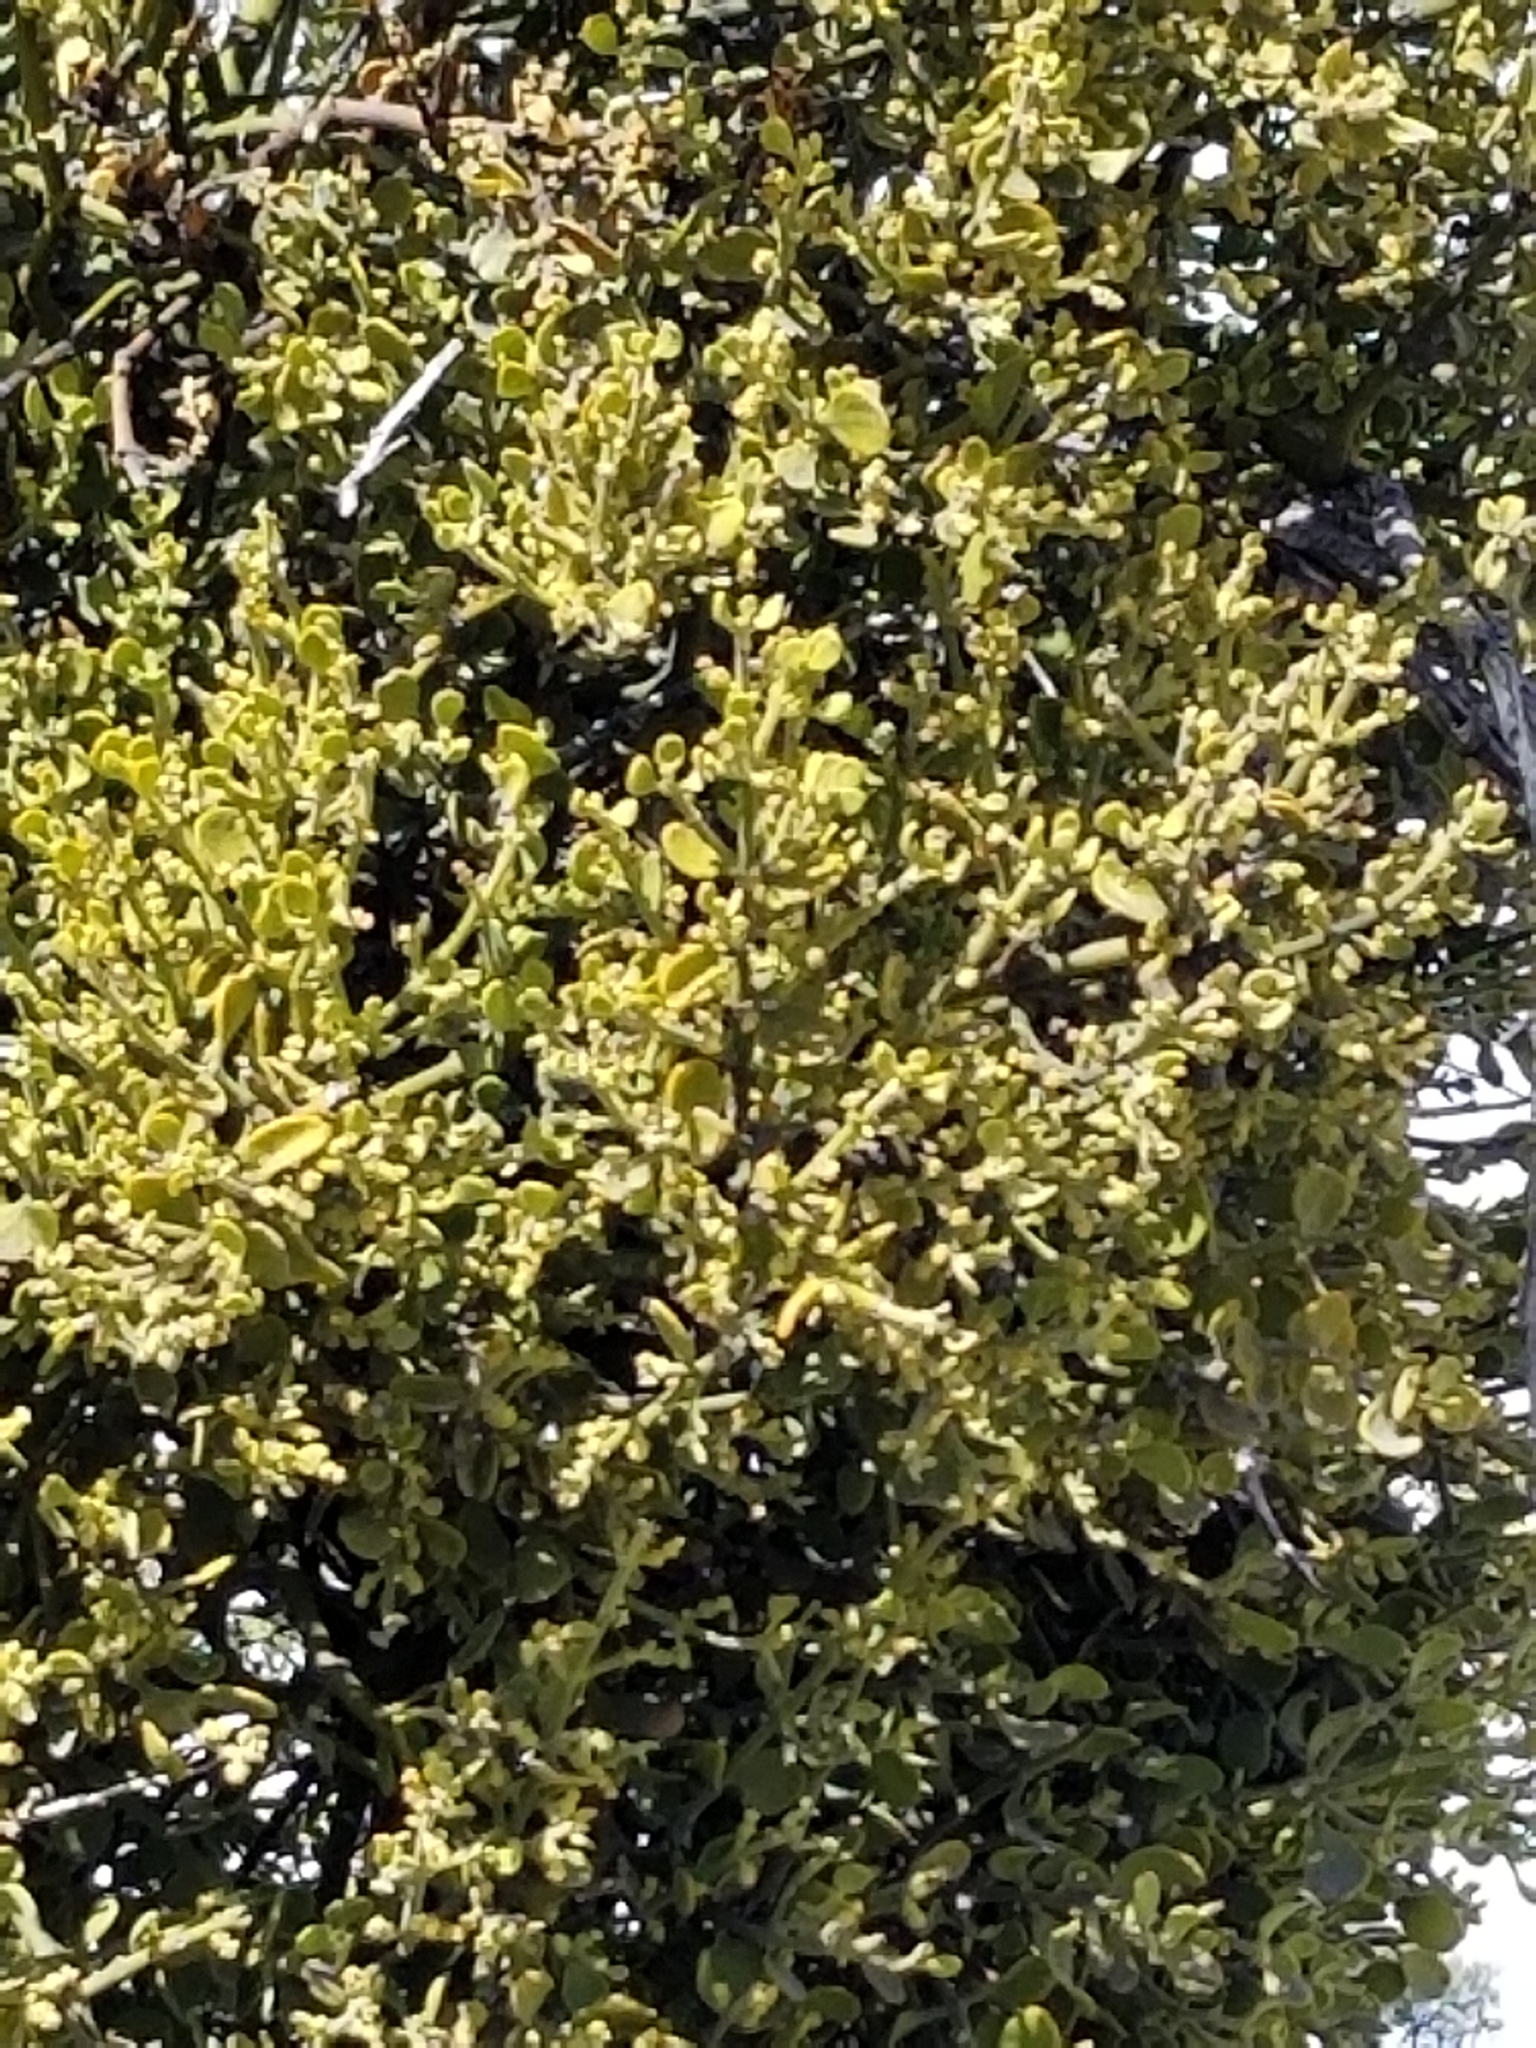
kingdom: Plantae
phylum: Tracheophyta
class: Magnoliopsida
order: Santalales
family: Viscaceae
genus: Phoradendron
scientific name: Phoradendron leucarpum
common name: Pacific mistletoe
